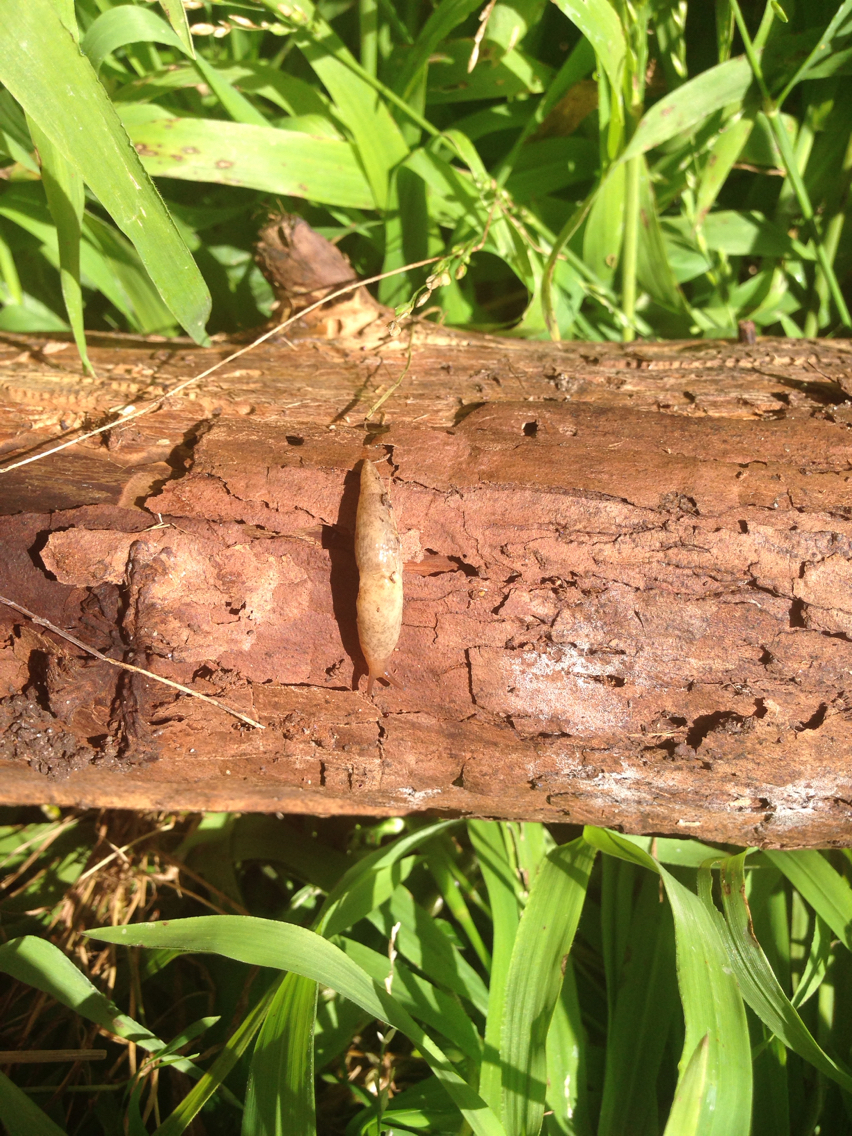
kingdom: Animalia
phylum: Mollusca
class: Gastropoda
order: Stylommatophora
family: Agriolimacidae
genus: Deroceras
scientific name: Deroceras reticulatum
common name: Gray field slug
